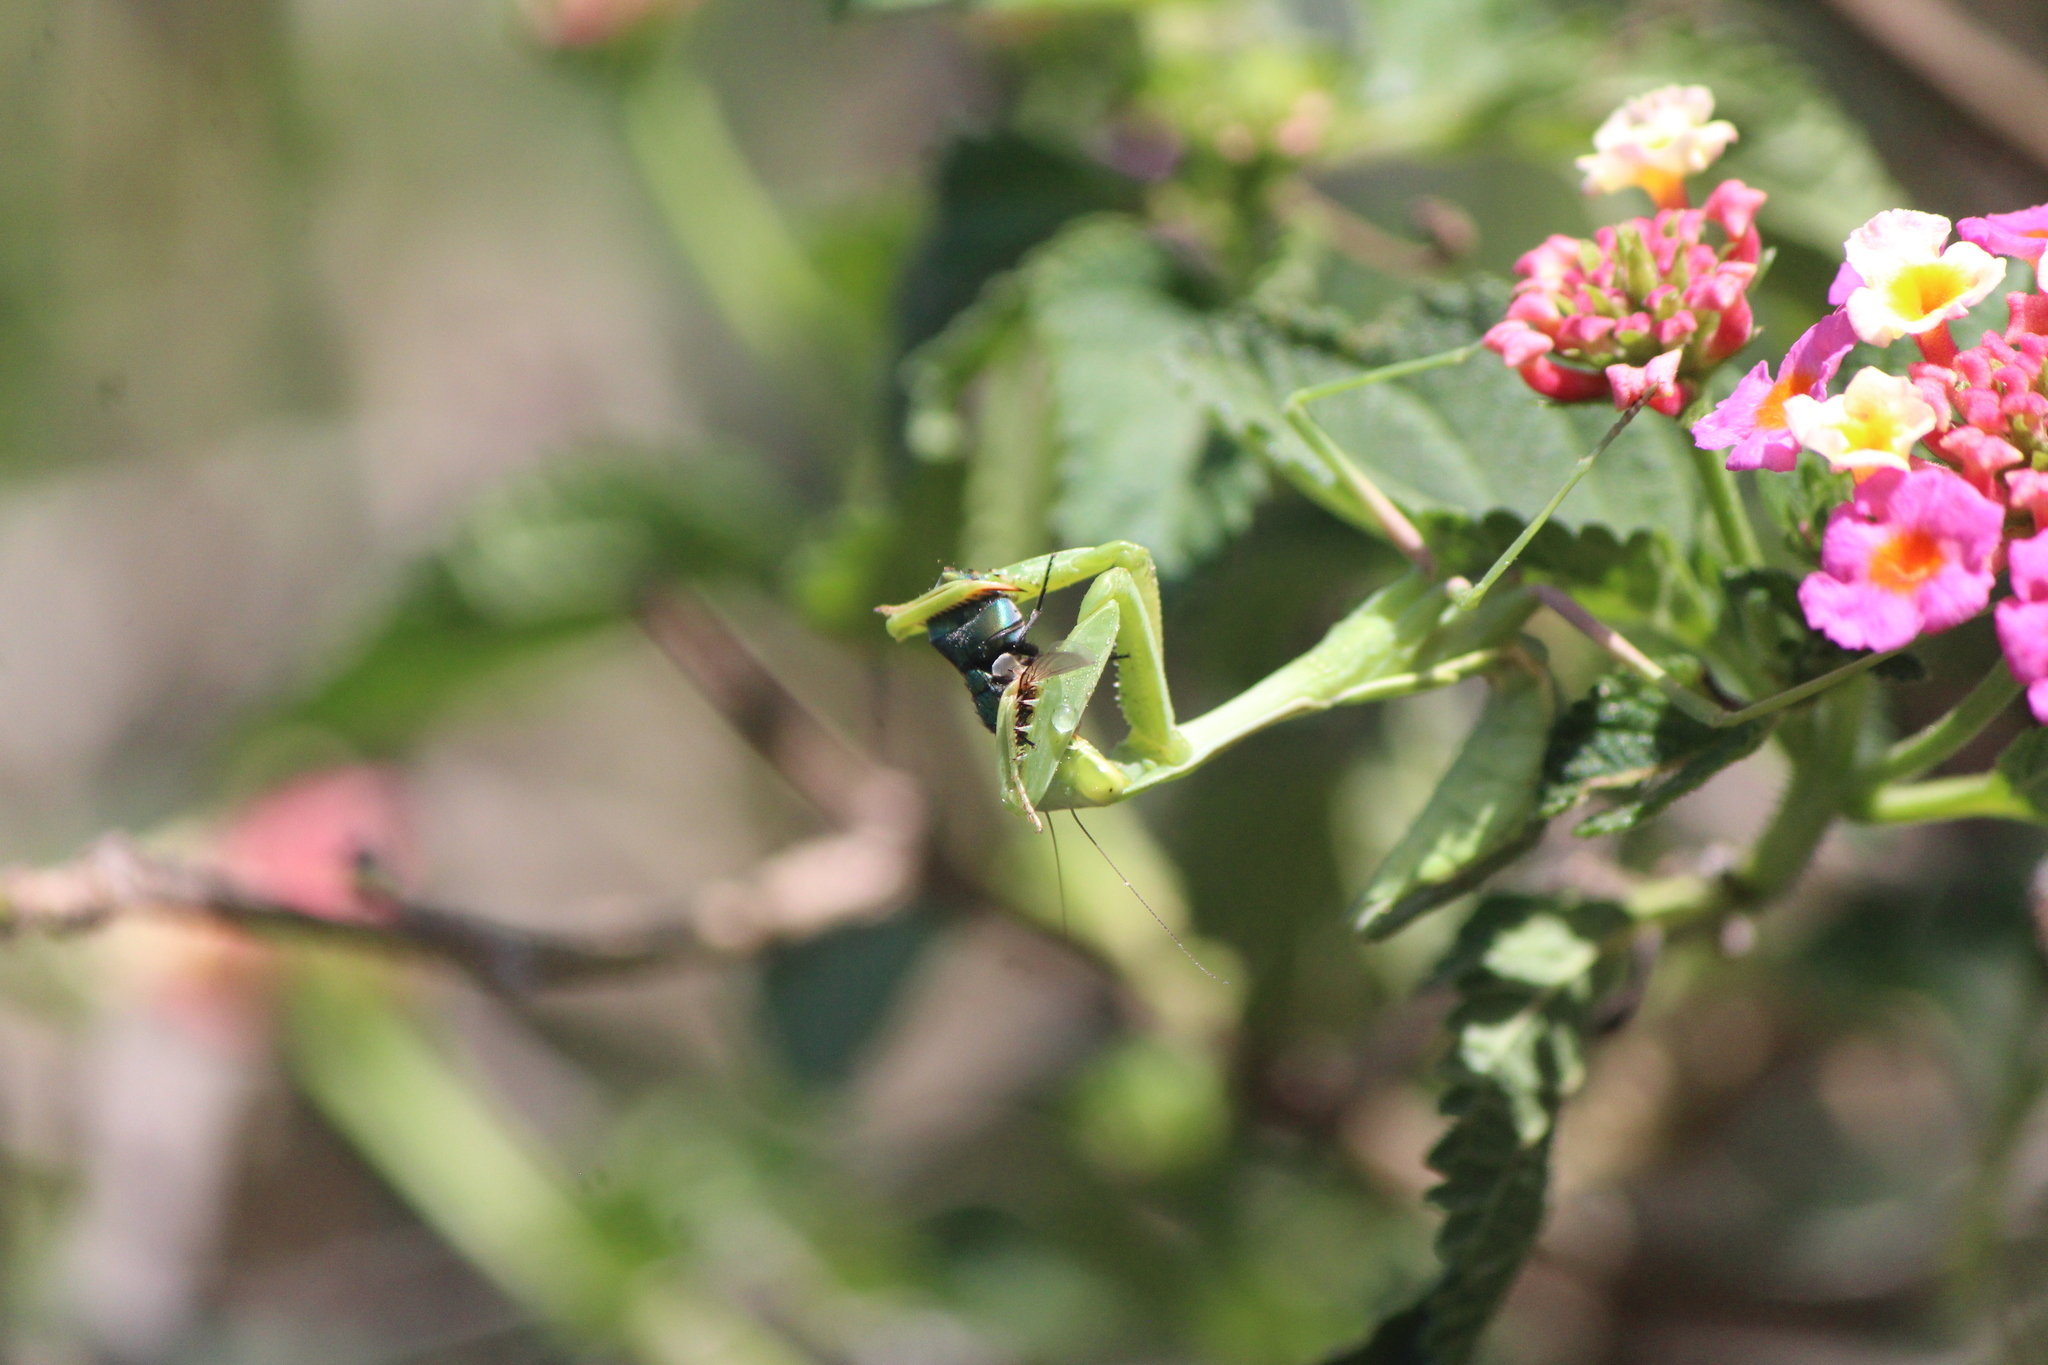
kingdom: Animalia
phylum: Arthropoda
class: Insecta
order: Mantodea
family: Mantidae
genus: Stagmomantis
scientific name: Stagmomantis limbata
